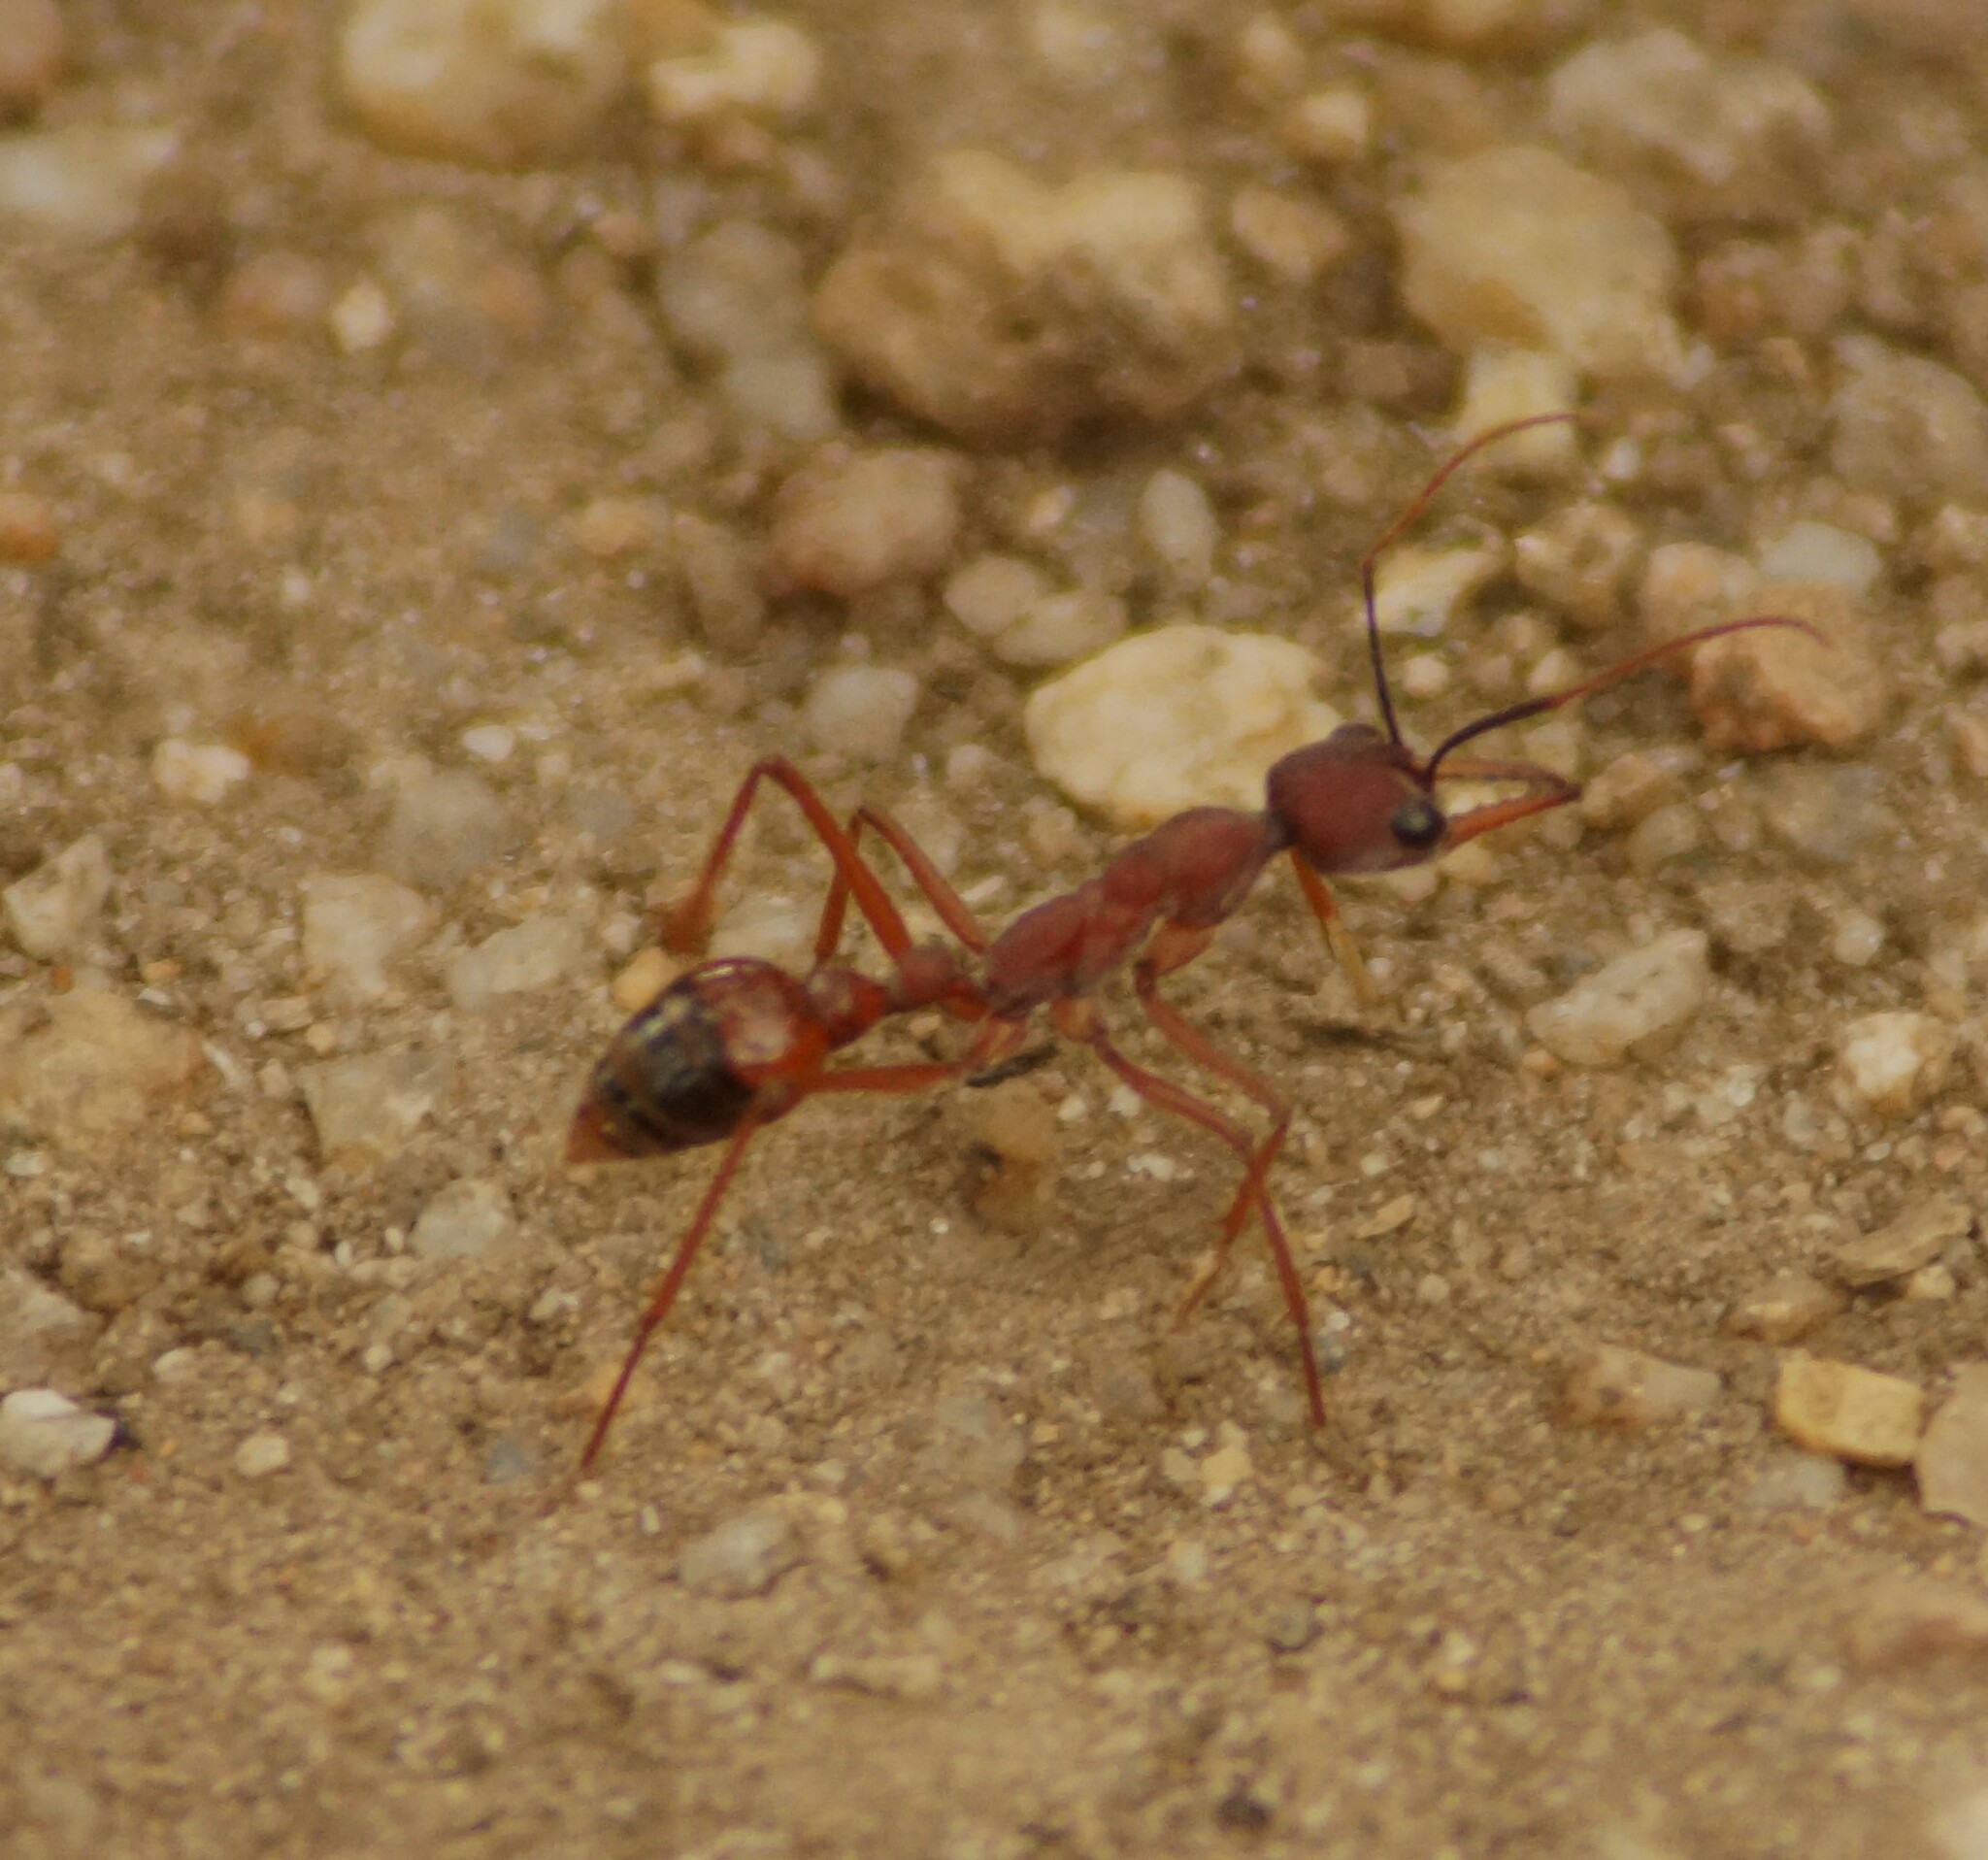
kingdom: Animalia
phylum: Arthropoda
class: Insecta
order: Hymenoptera
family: Formicidae
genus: Myrmecia
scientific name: Myrmecia nigriscapa
